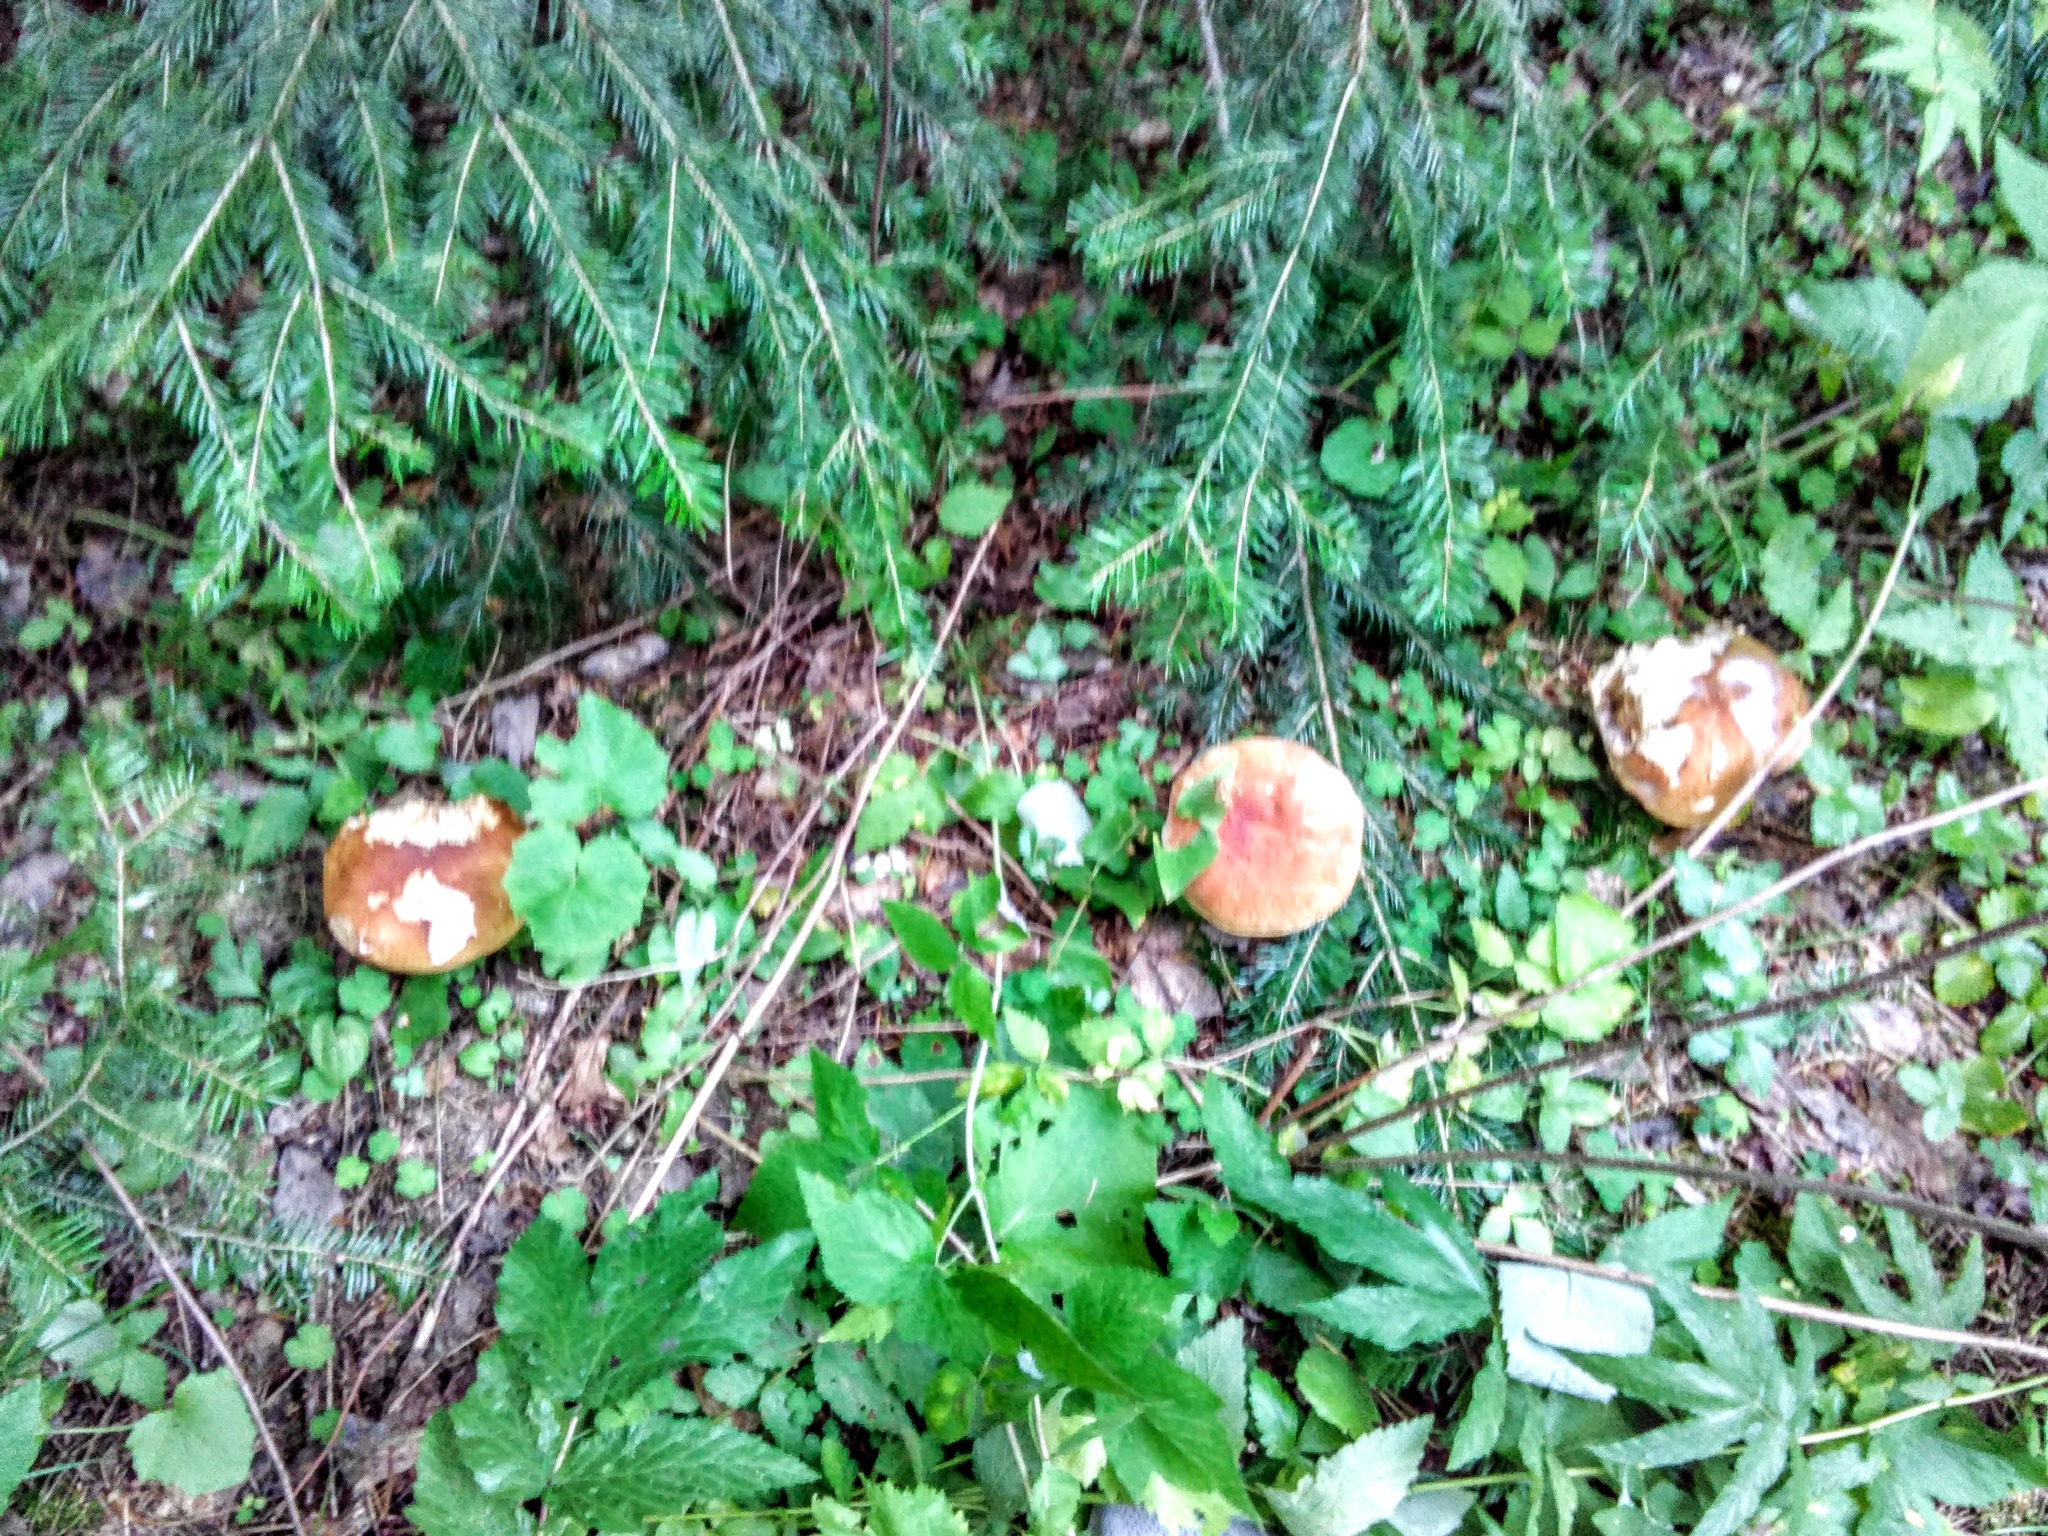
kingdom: Fungi
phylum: Basidiomycota
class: Agaricomycetes
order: Boletales
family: Boletaceae
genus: Boletus
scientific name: Boletus edulis
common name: Cep
